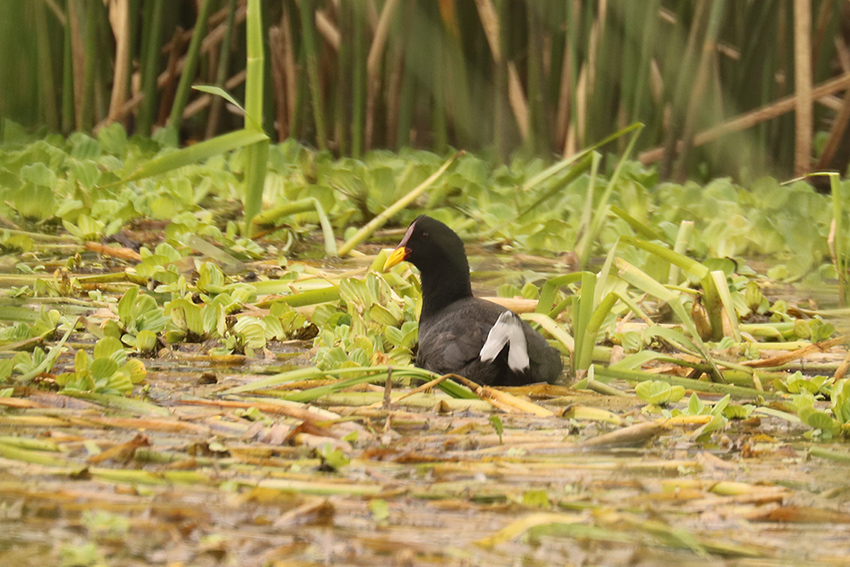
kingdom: Animalia
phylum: Chordata
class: Aves
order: Gruiformes
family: Rallidae
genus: Fulica
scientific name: Fulica rufifrons
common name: Red-fronted coot
